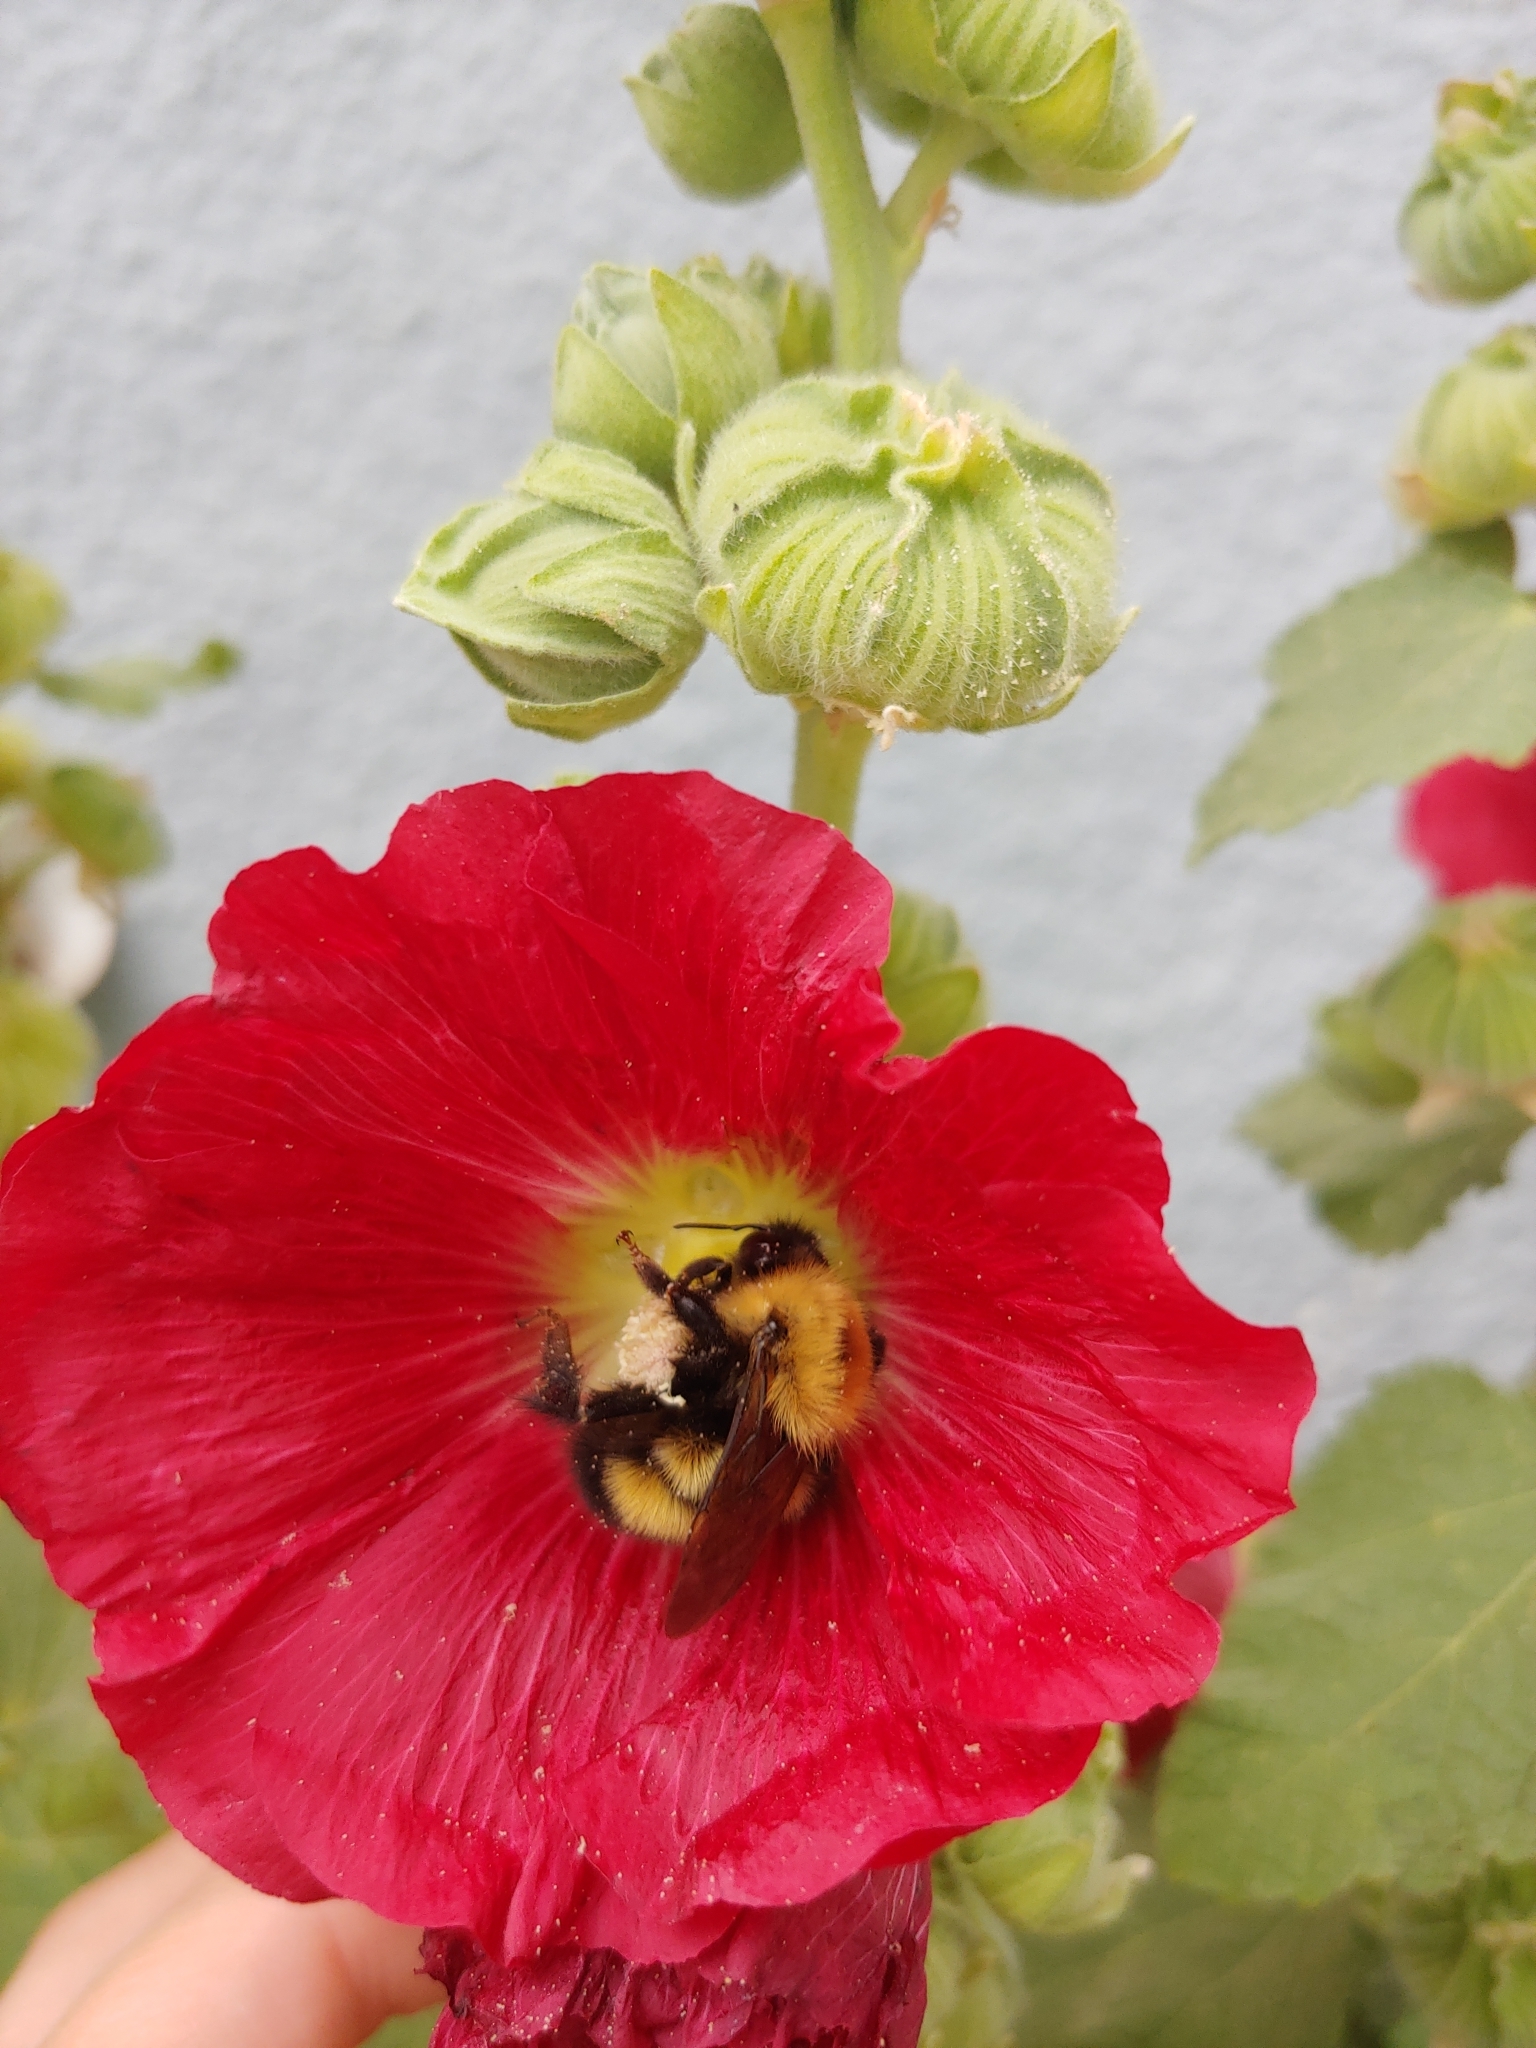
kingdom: Animalia
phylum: Arthropoda
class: Insecta
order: Hymenoptera
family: Apidae
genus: Bombus
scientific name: Bombus perplexus
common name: Confusing bumble bee
